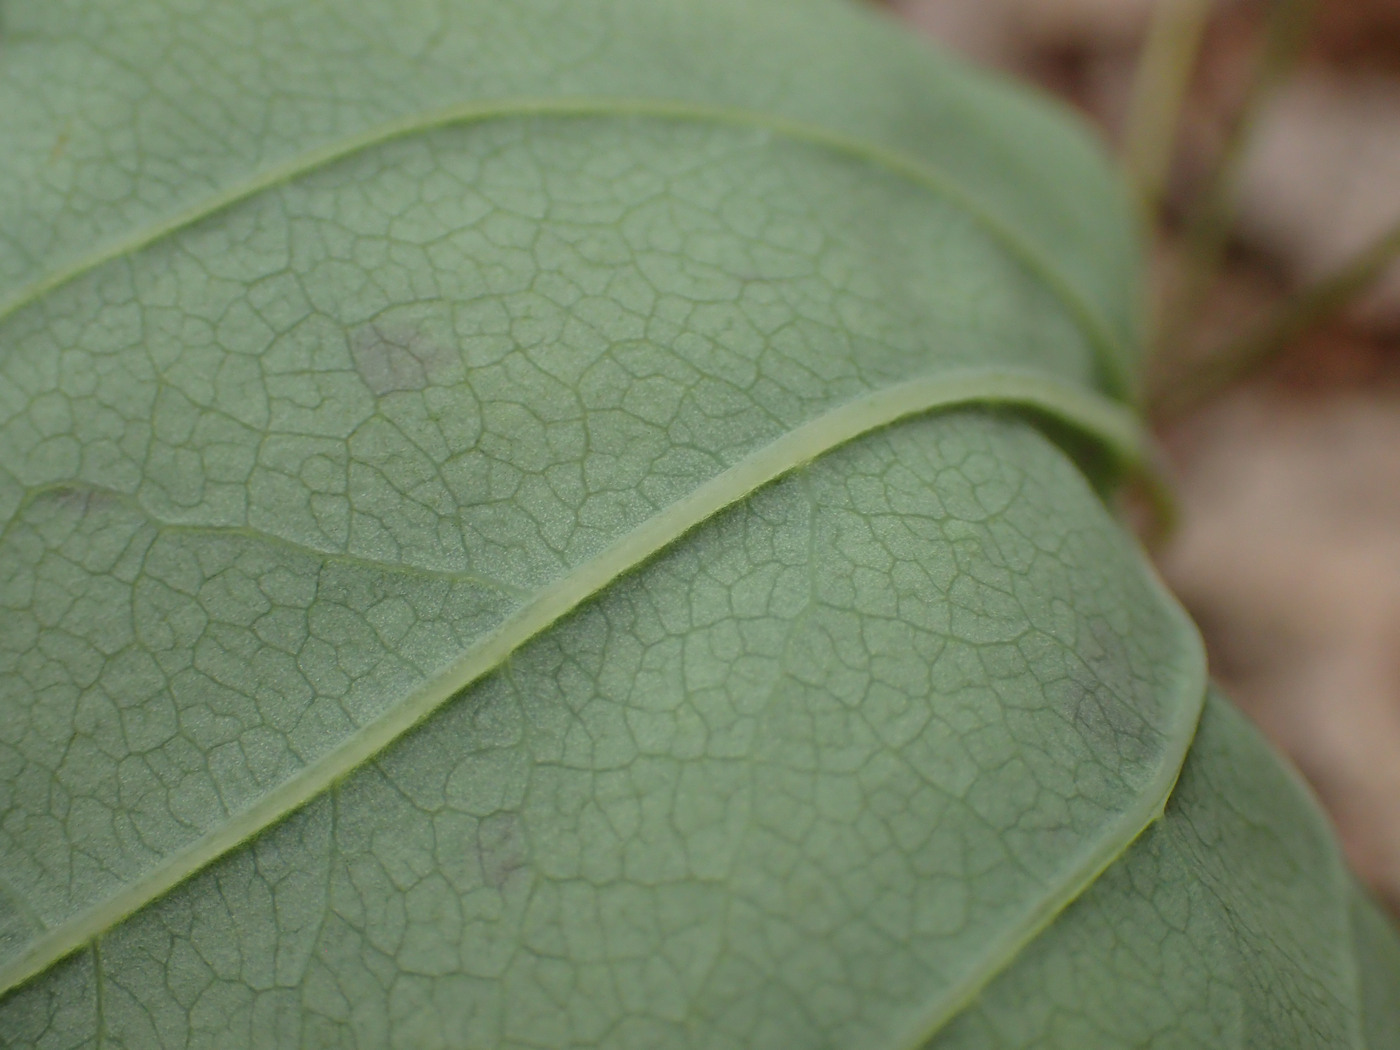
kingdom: Plantae
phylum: Tracheophyta
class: Liliopsida
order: Liliales
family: Smilacaceae
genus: Smilax
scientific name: Smilax biltmoreana
